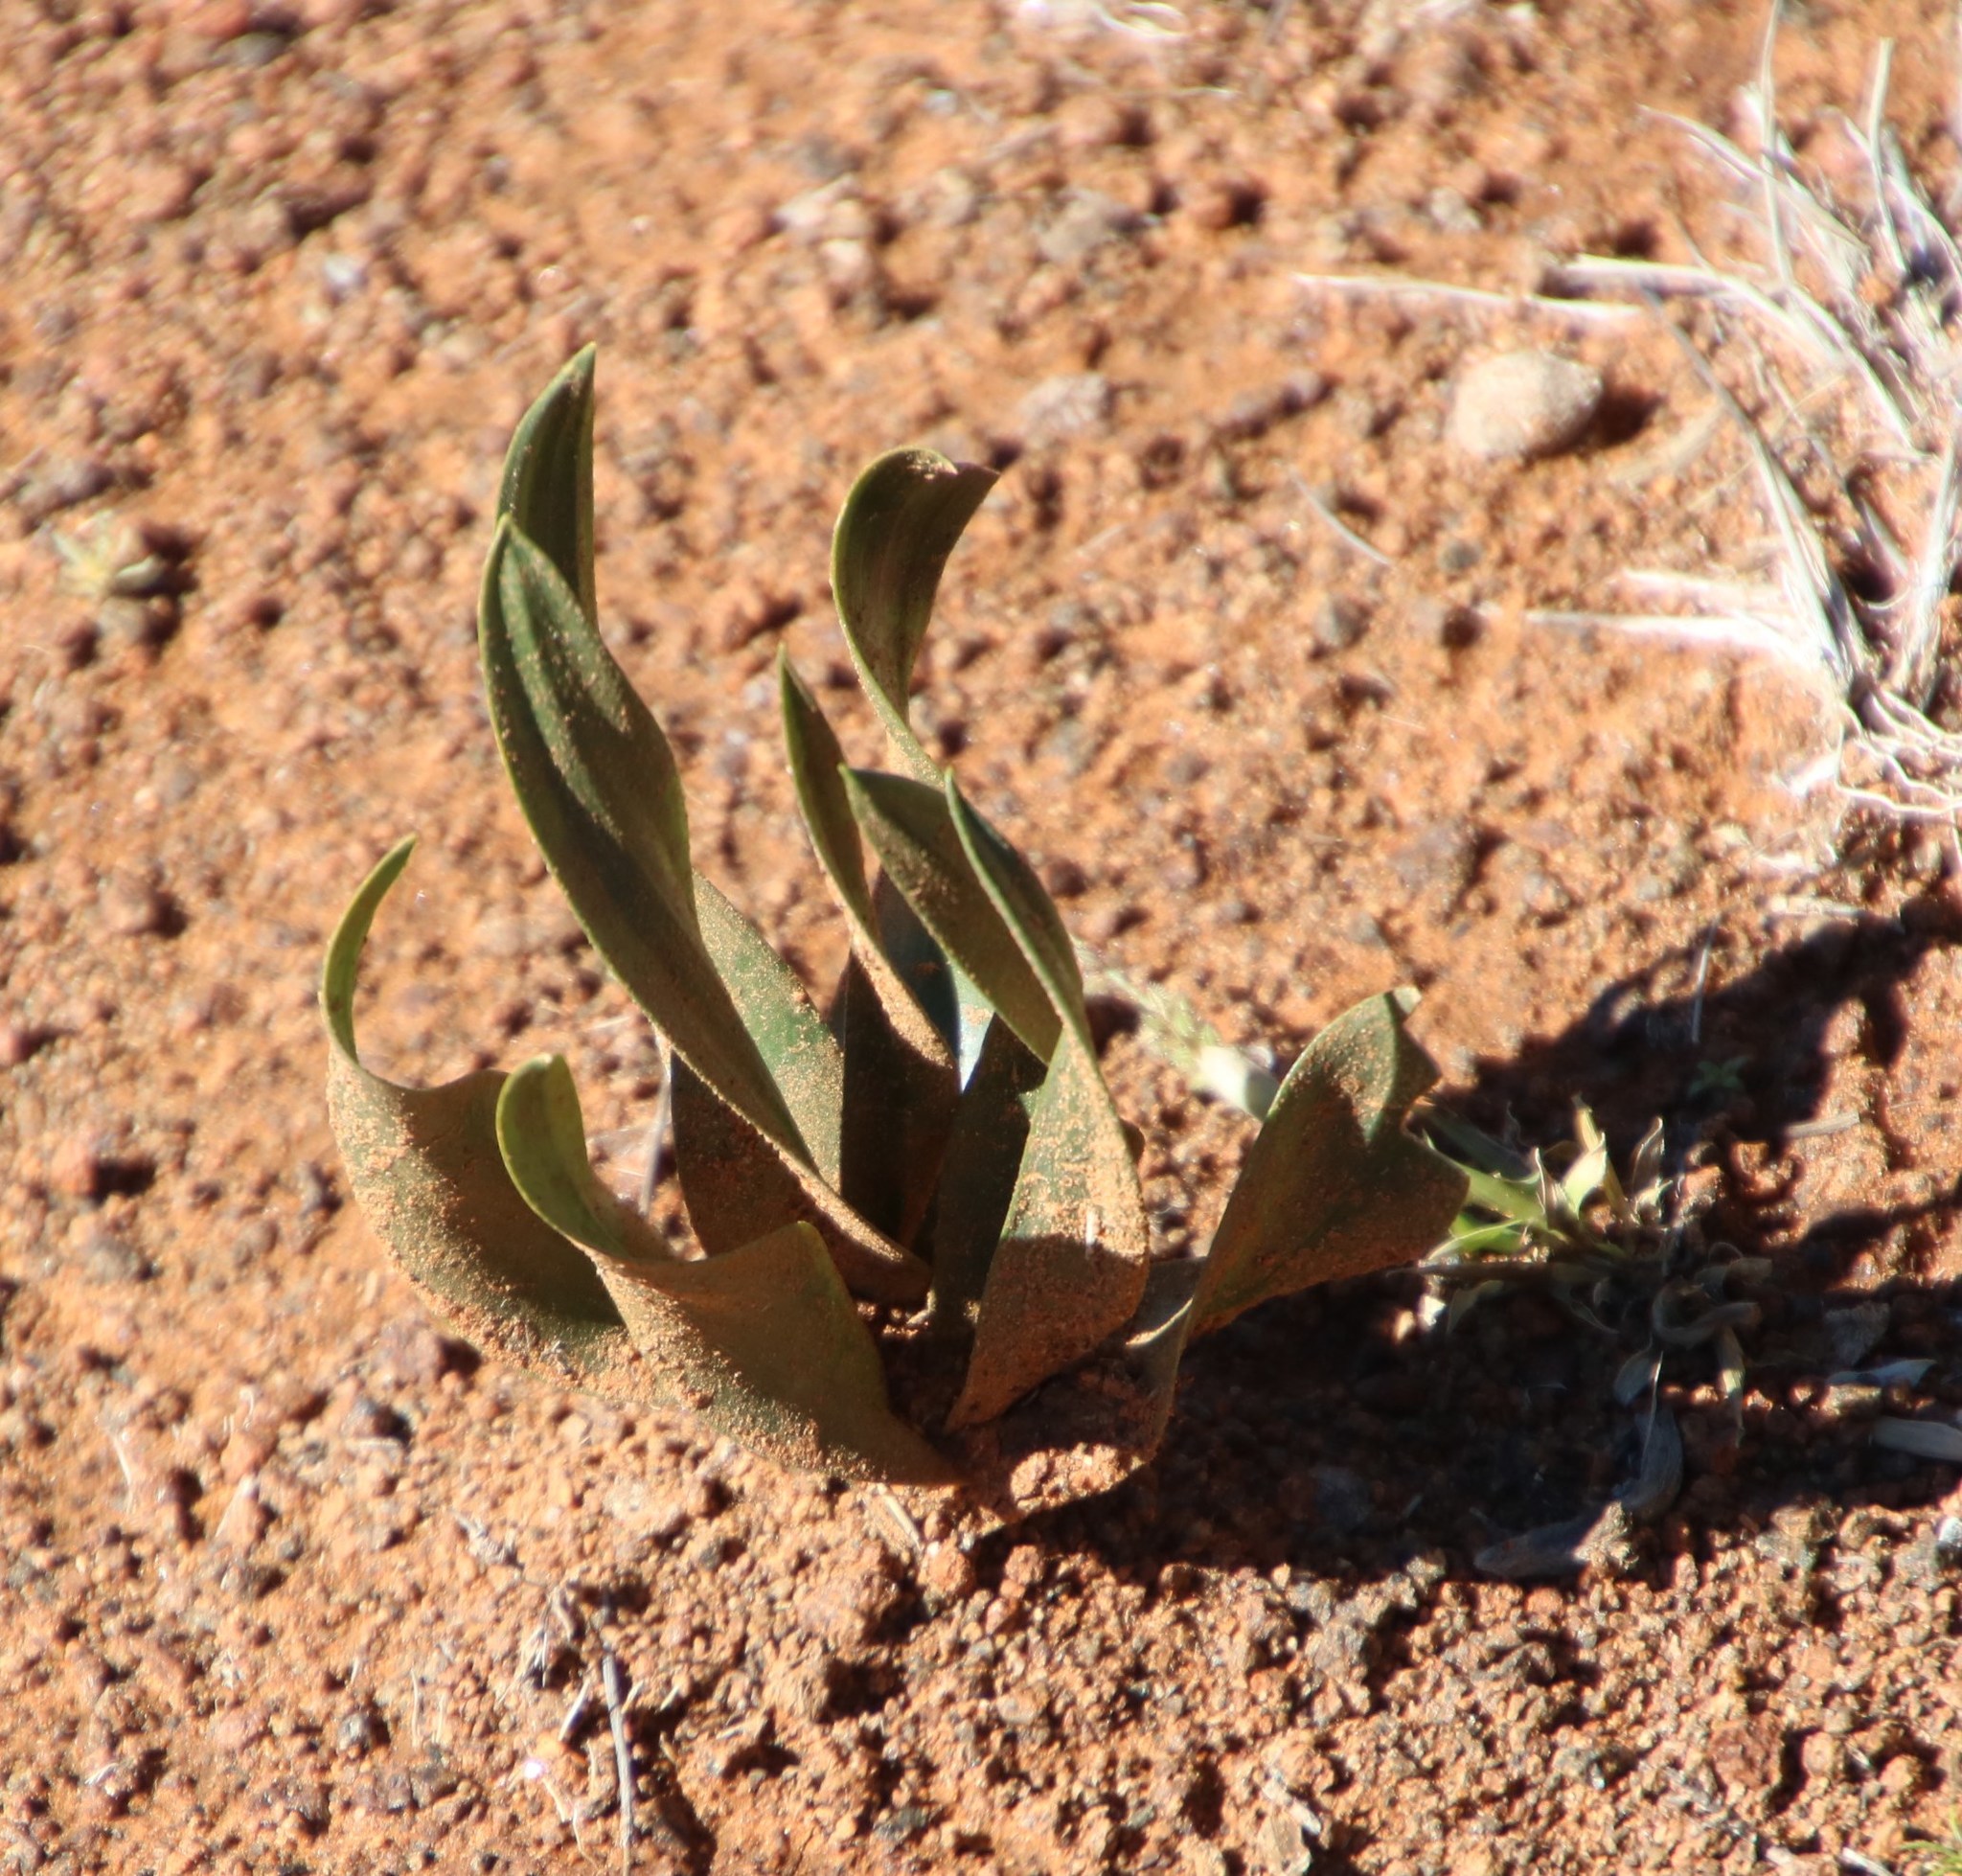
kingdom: Plantae
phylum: Tracheophyta
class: Liliopsida
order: Asparagales
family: Asparagaceae
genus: Fusifilum
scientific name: Fusifilum physodes
